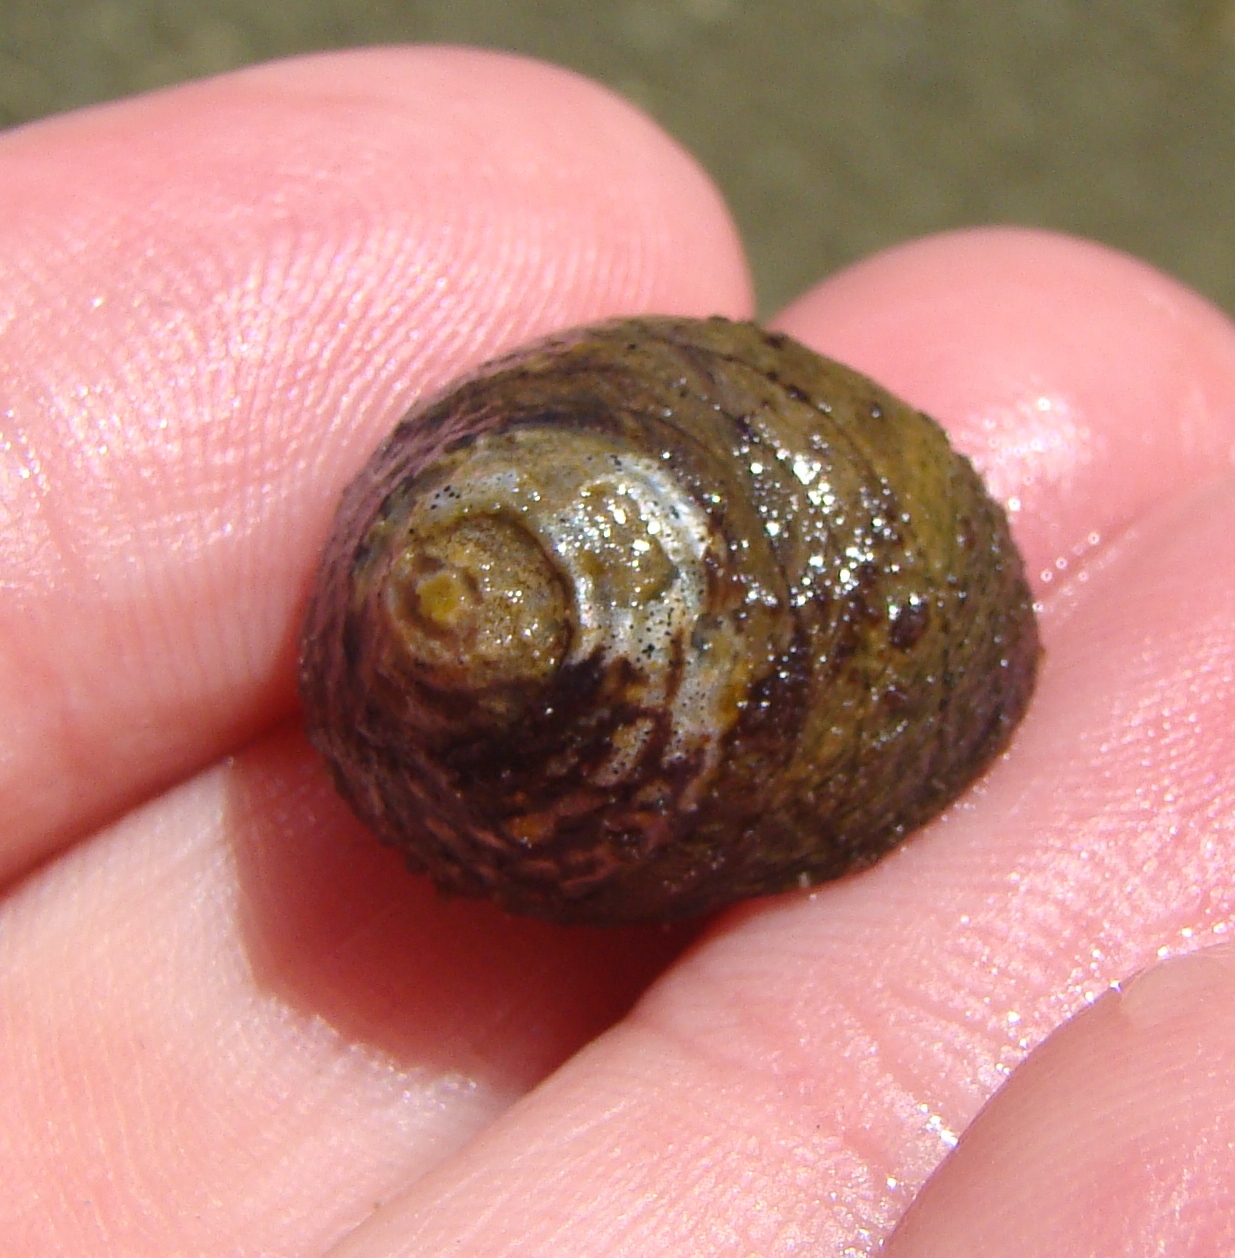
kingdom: Animalia
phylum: Mollusca
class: Gastropoda
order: Trochida
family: Trochidae
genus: Diloma
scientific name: Diloma aethiops
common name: Scorched monodont
